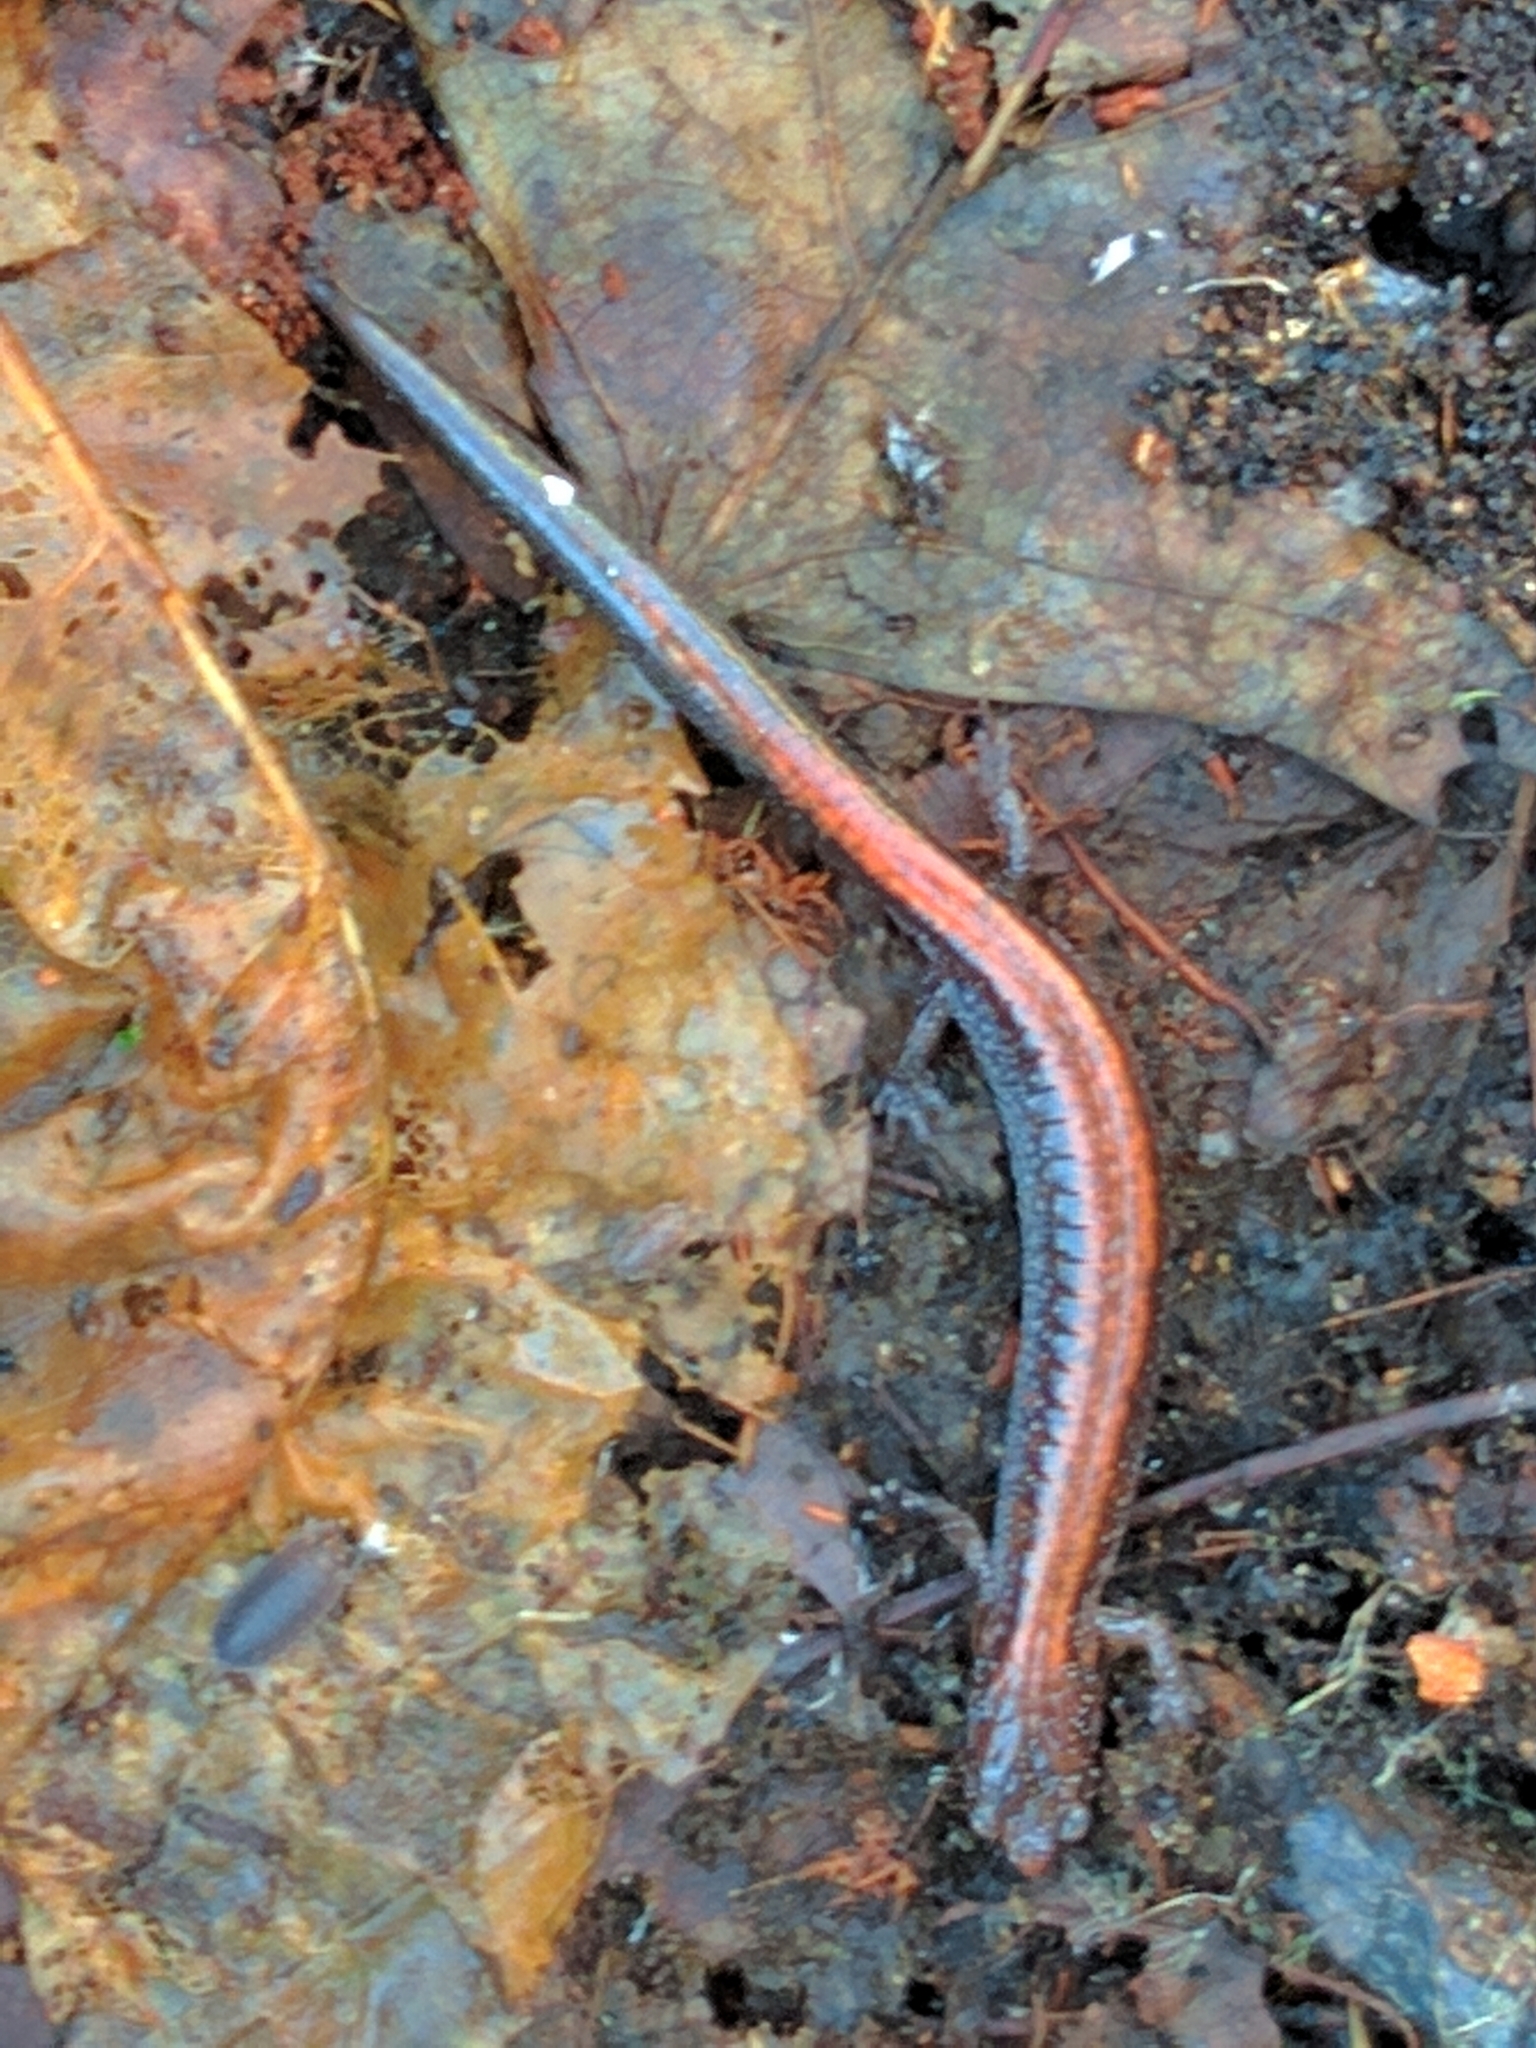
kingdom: Animalia
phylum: Chordata
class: Amphibia
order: Caudata
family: Plethodontidae
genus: Plethodon
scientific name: Plethodon cinereus
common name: Redback salamander
